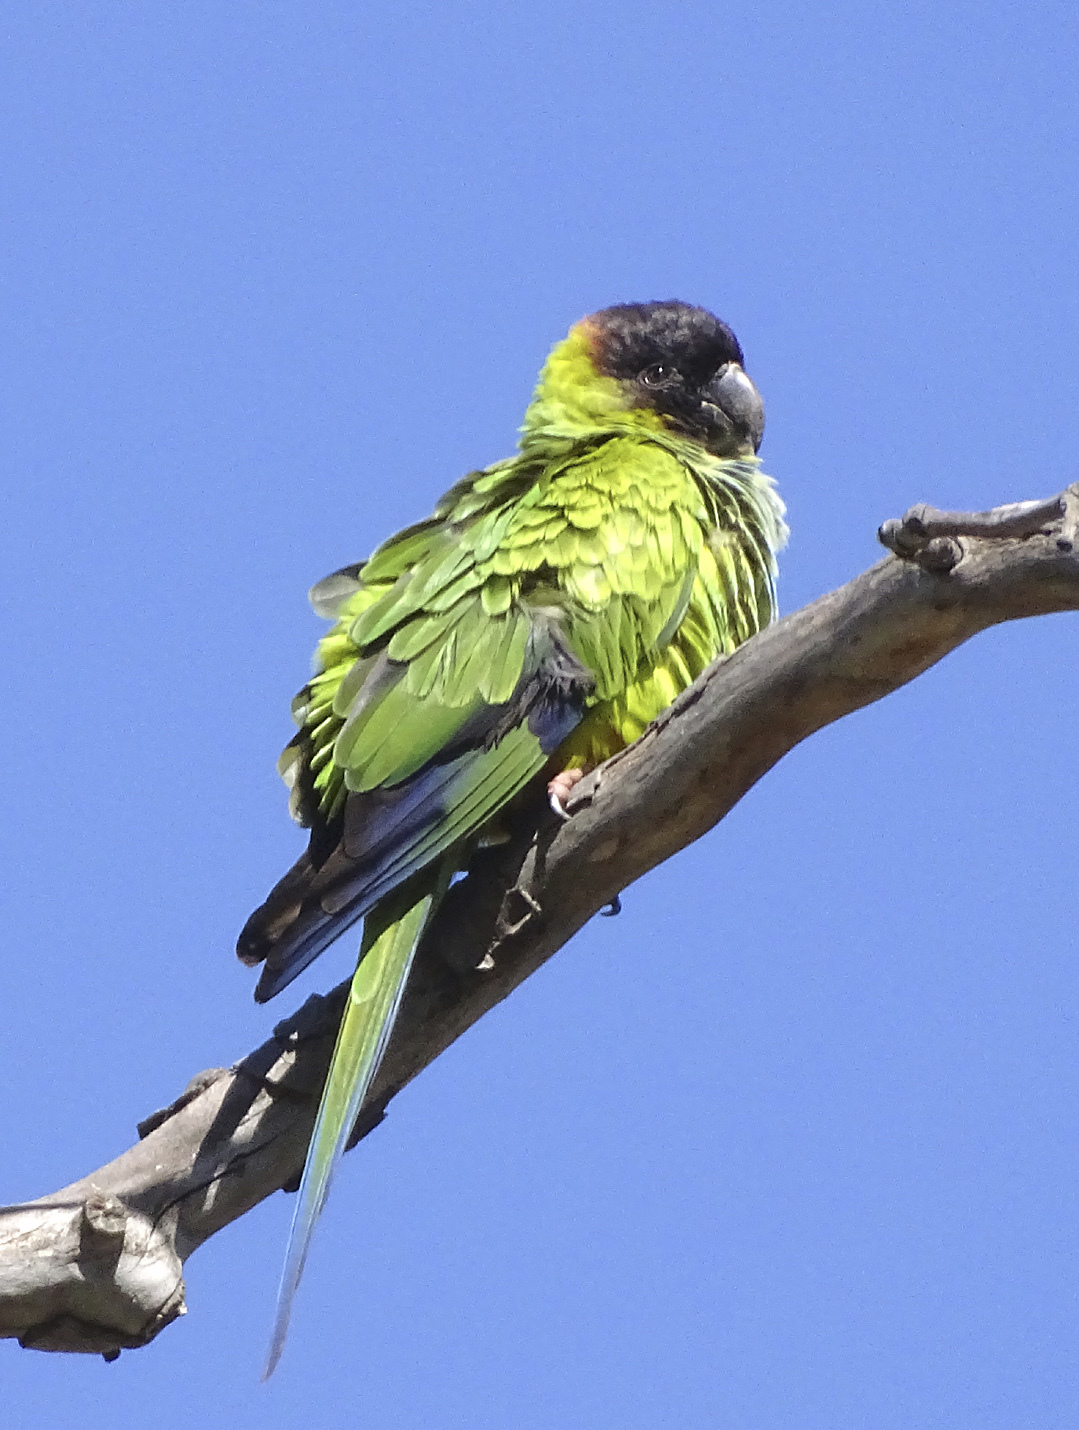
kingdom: Animalia
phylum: Chordata
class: Aves
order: Psittaciformes
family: Psittacidae
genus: Nandayus
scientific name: Nandayus nenday
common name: Nanday parakeet
